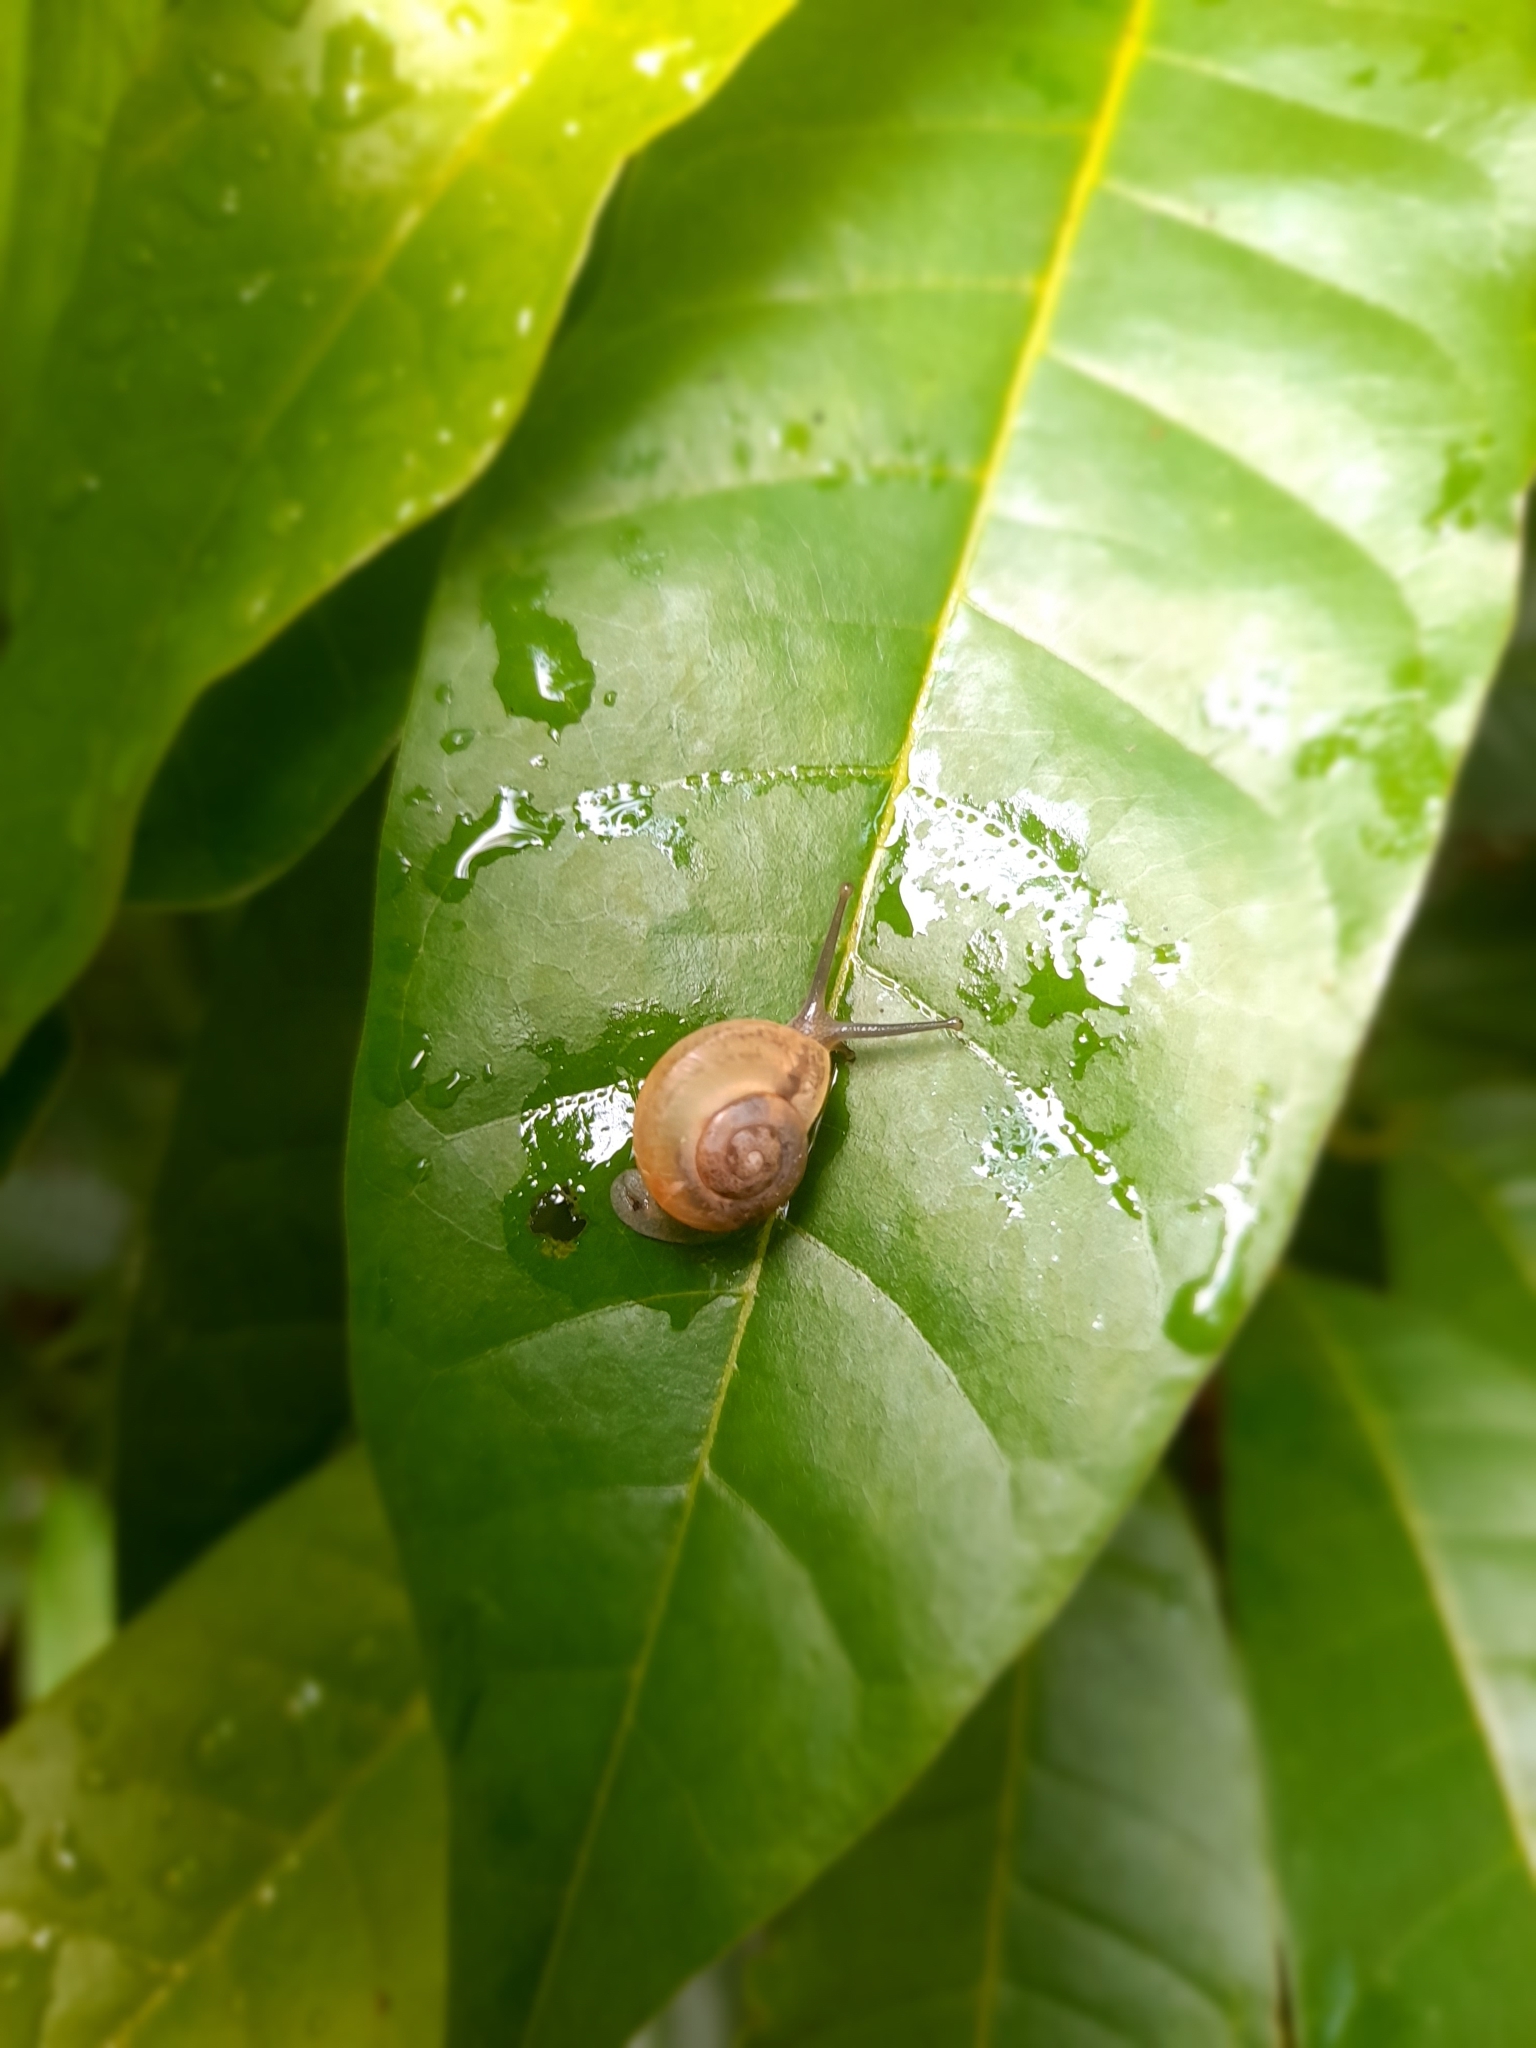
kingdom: Animalia
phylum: Mollusca
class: Gastropoda
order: Stylommatophora
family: Camaenidae
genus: Bradybaena
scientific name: Bradybaena similaris
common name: Asian trampsnail
